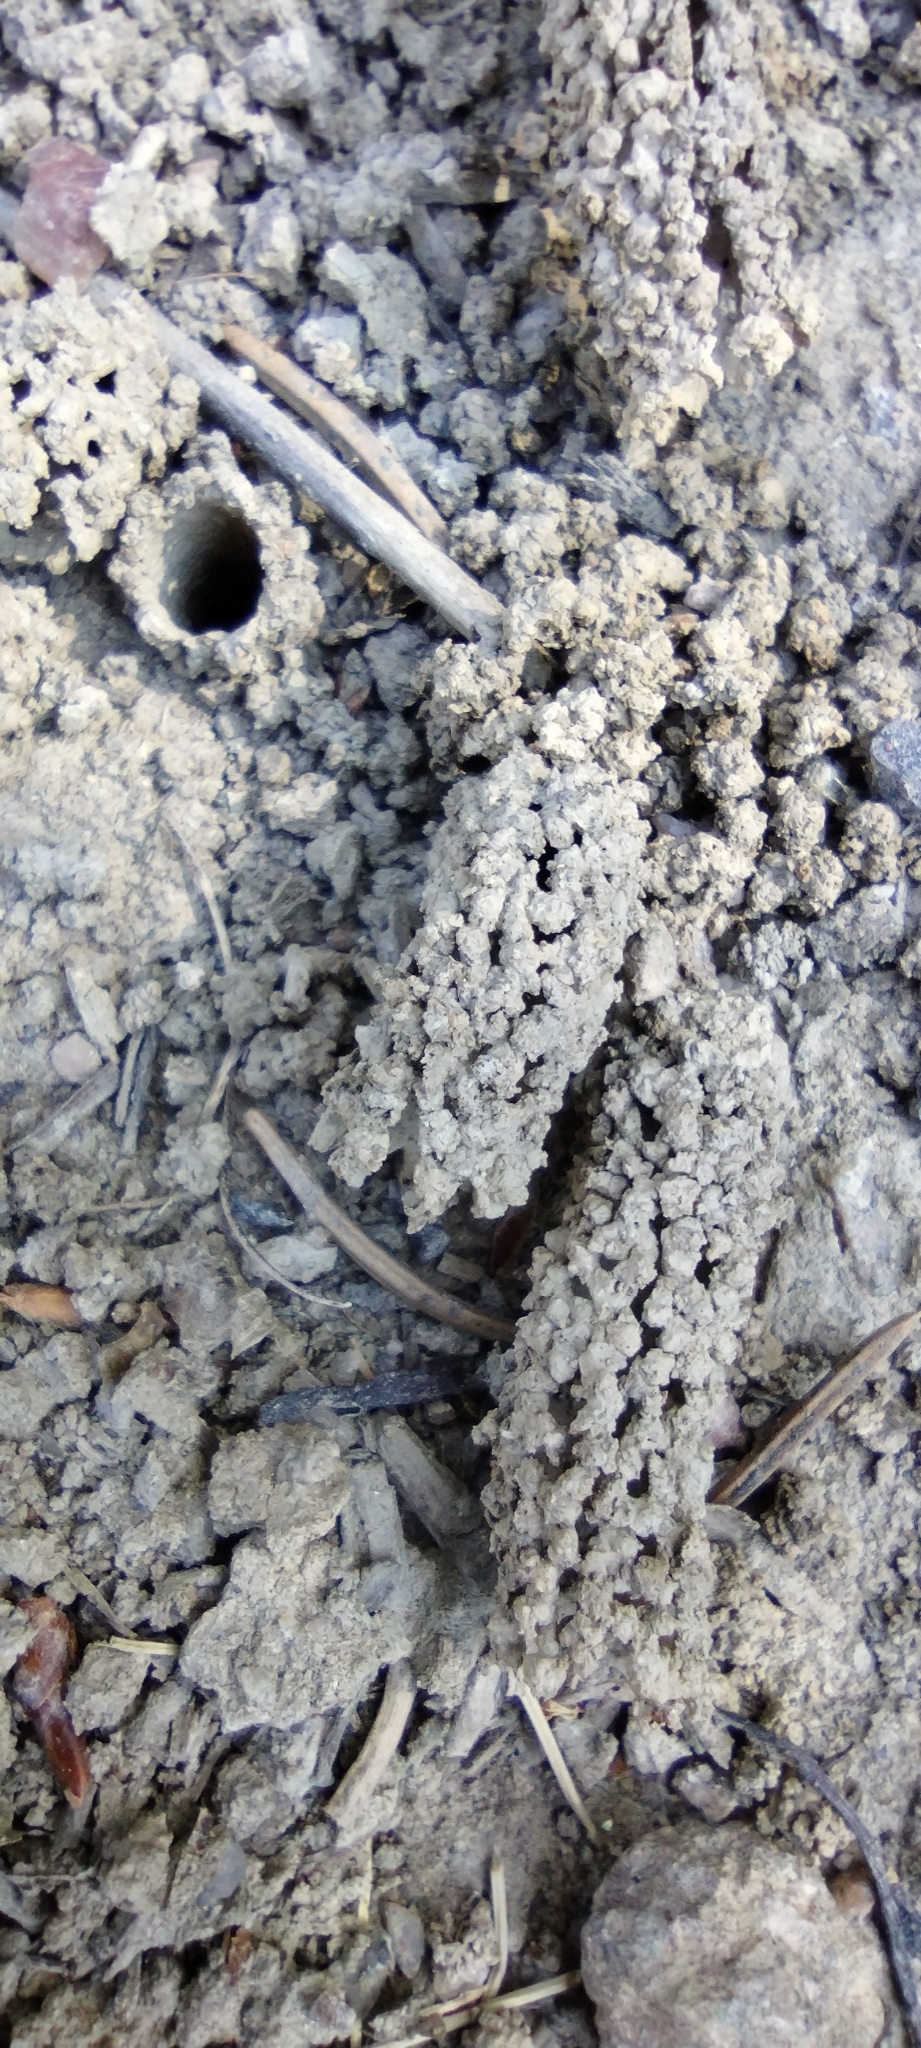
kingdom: Animalia
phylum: Arthropoda
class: Insecta
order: Hymenoptera
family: Vespidae
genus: Odynerus
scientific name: Odynerus
